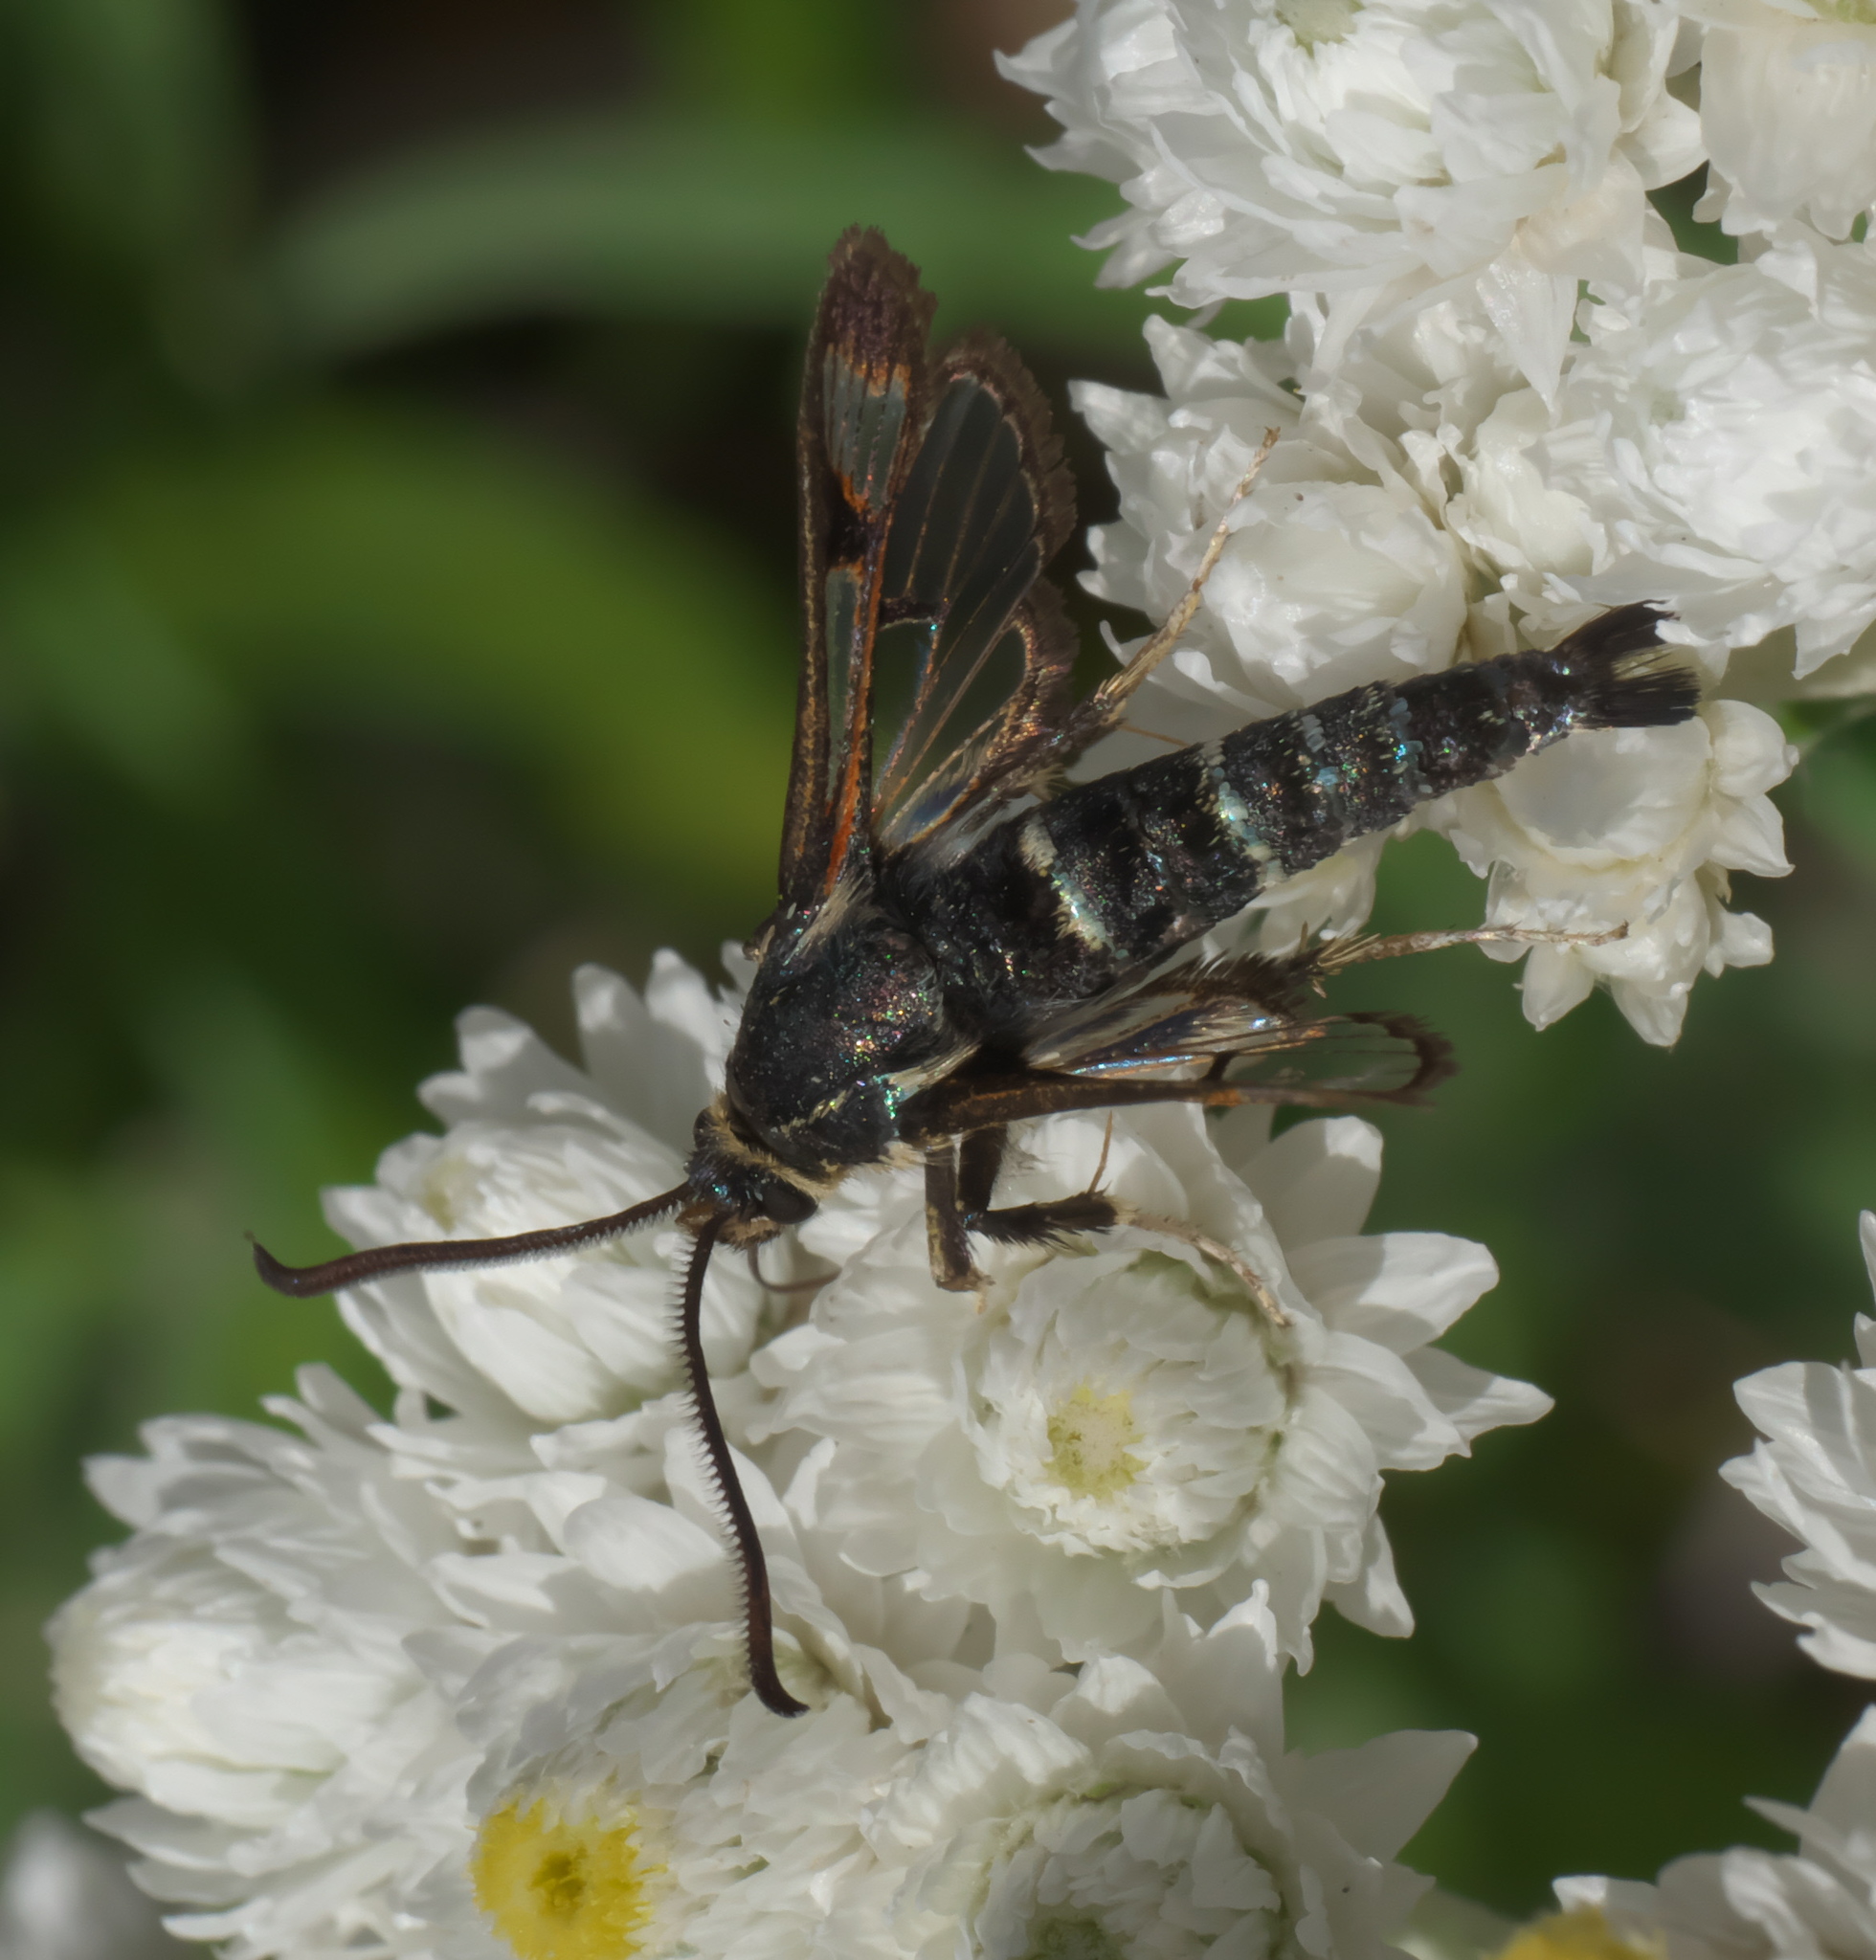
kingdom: Animalia
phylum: Arthropoda
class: Insecta
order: Lepidoptera
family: Sesiidae
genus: Albuna
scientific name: Albuna pyramidalis
